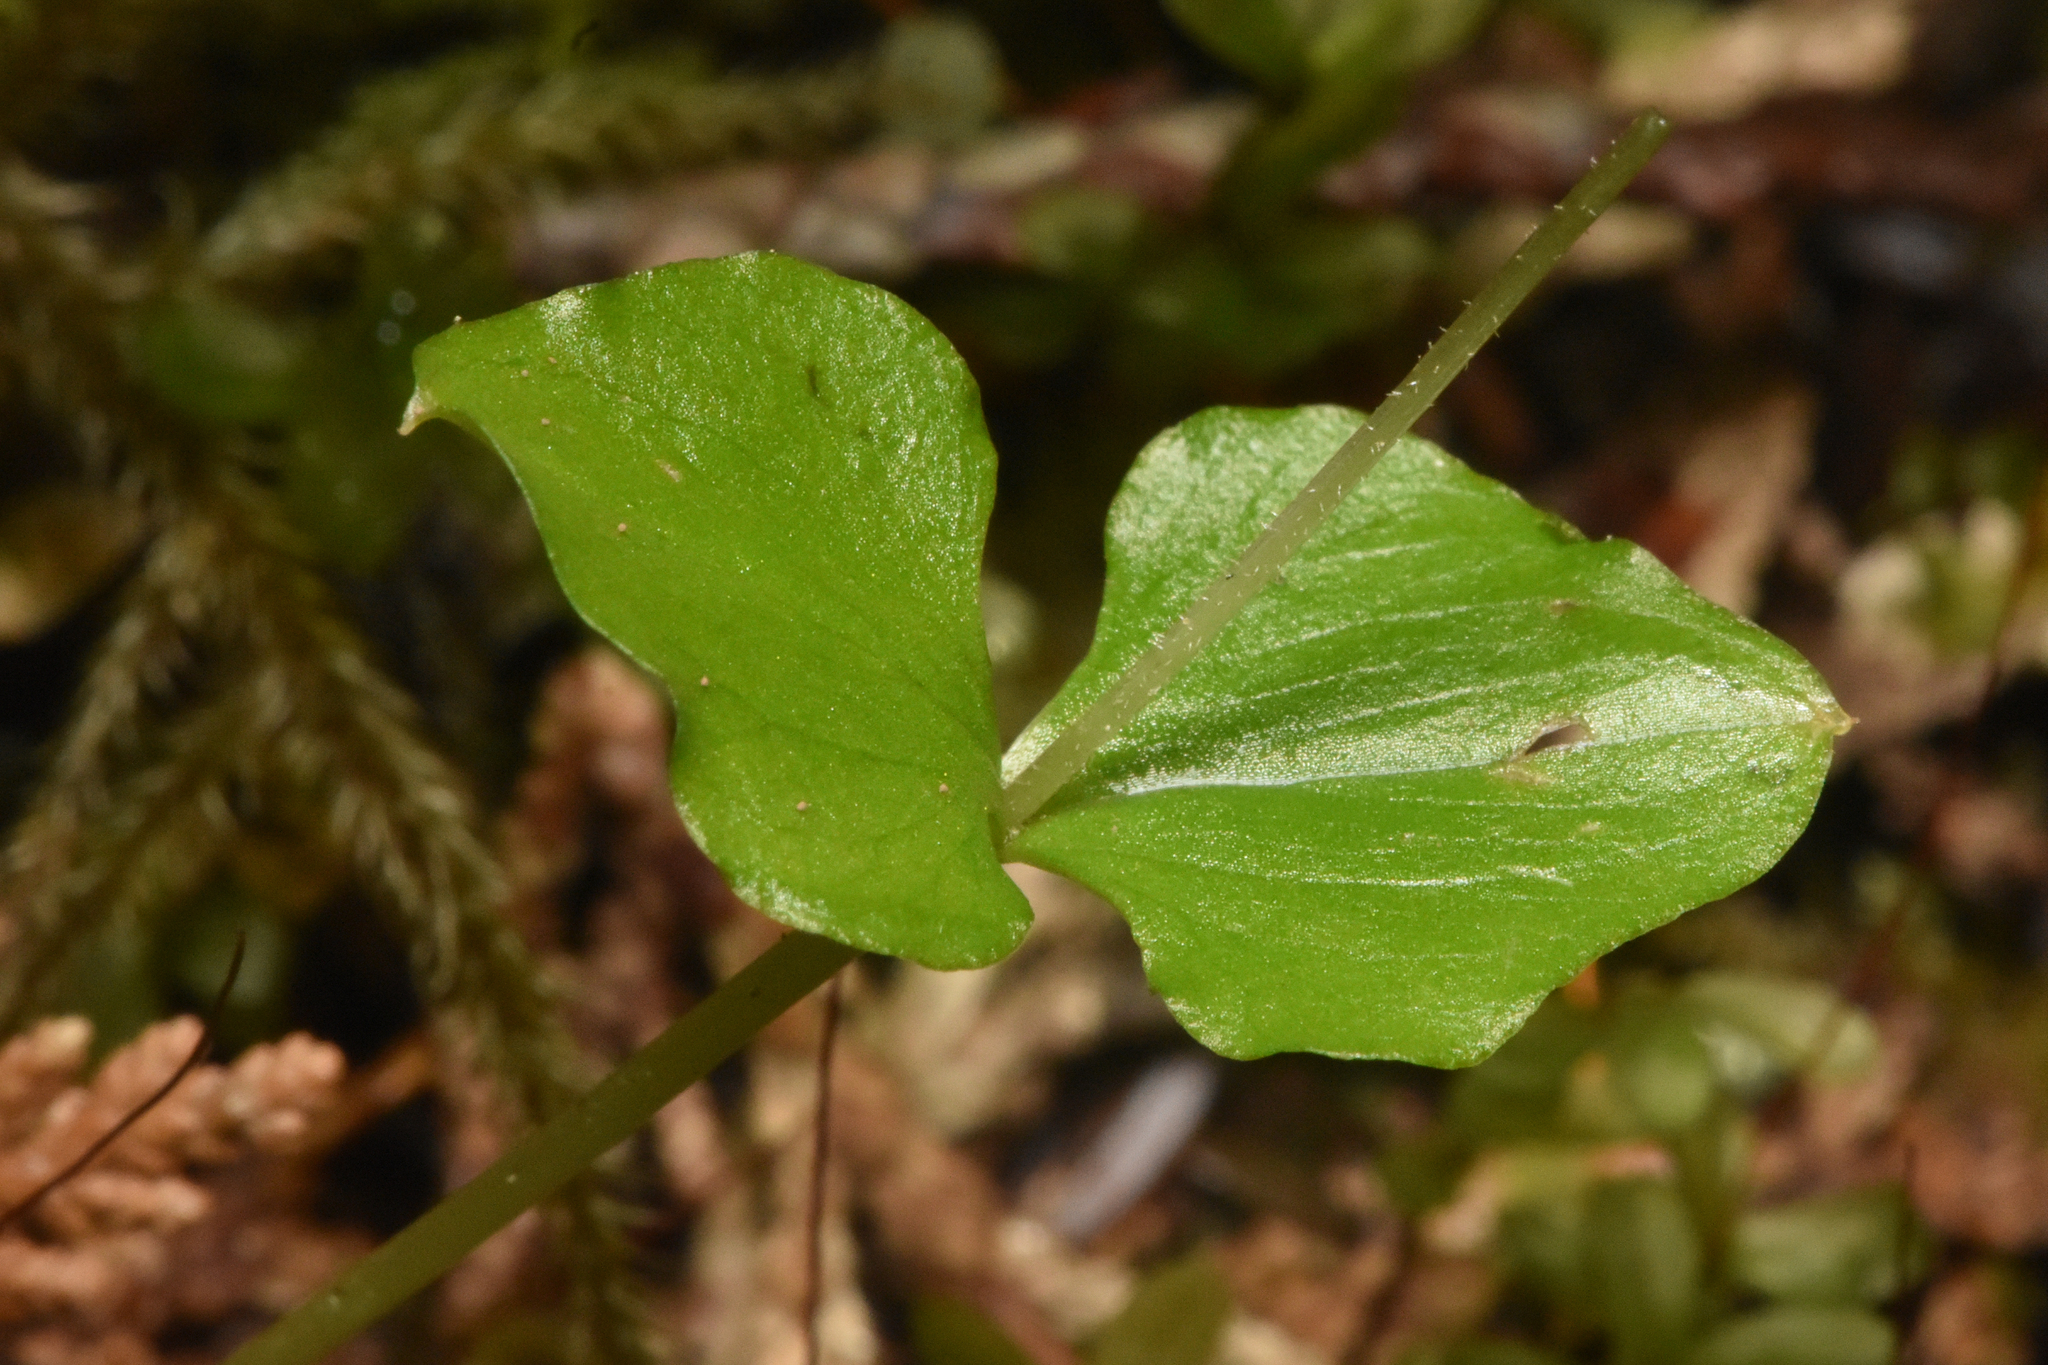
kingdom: Plantae
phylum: Tracheophyta
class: Liliopsida
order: Asparagales
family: Orchidaceae
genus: Neottia
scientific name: Neottia cordata
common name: Lesser twayblade
